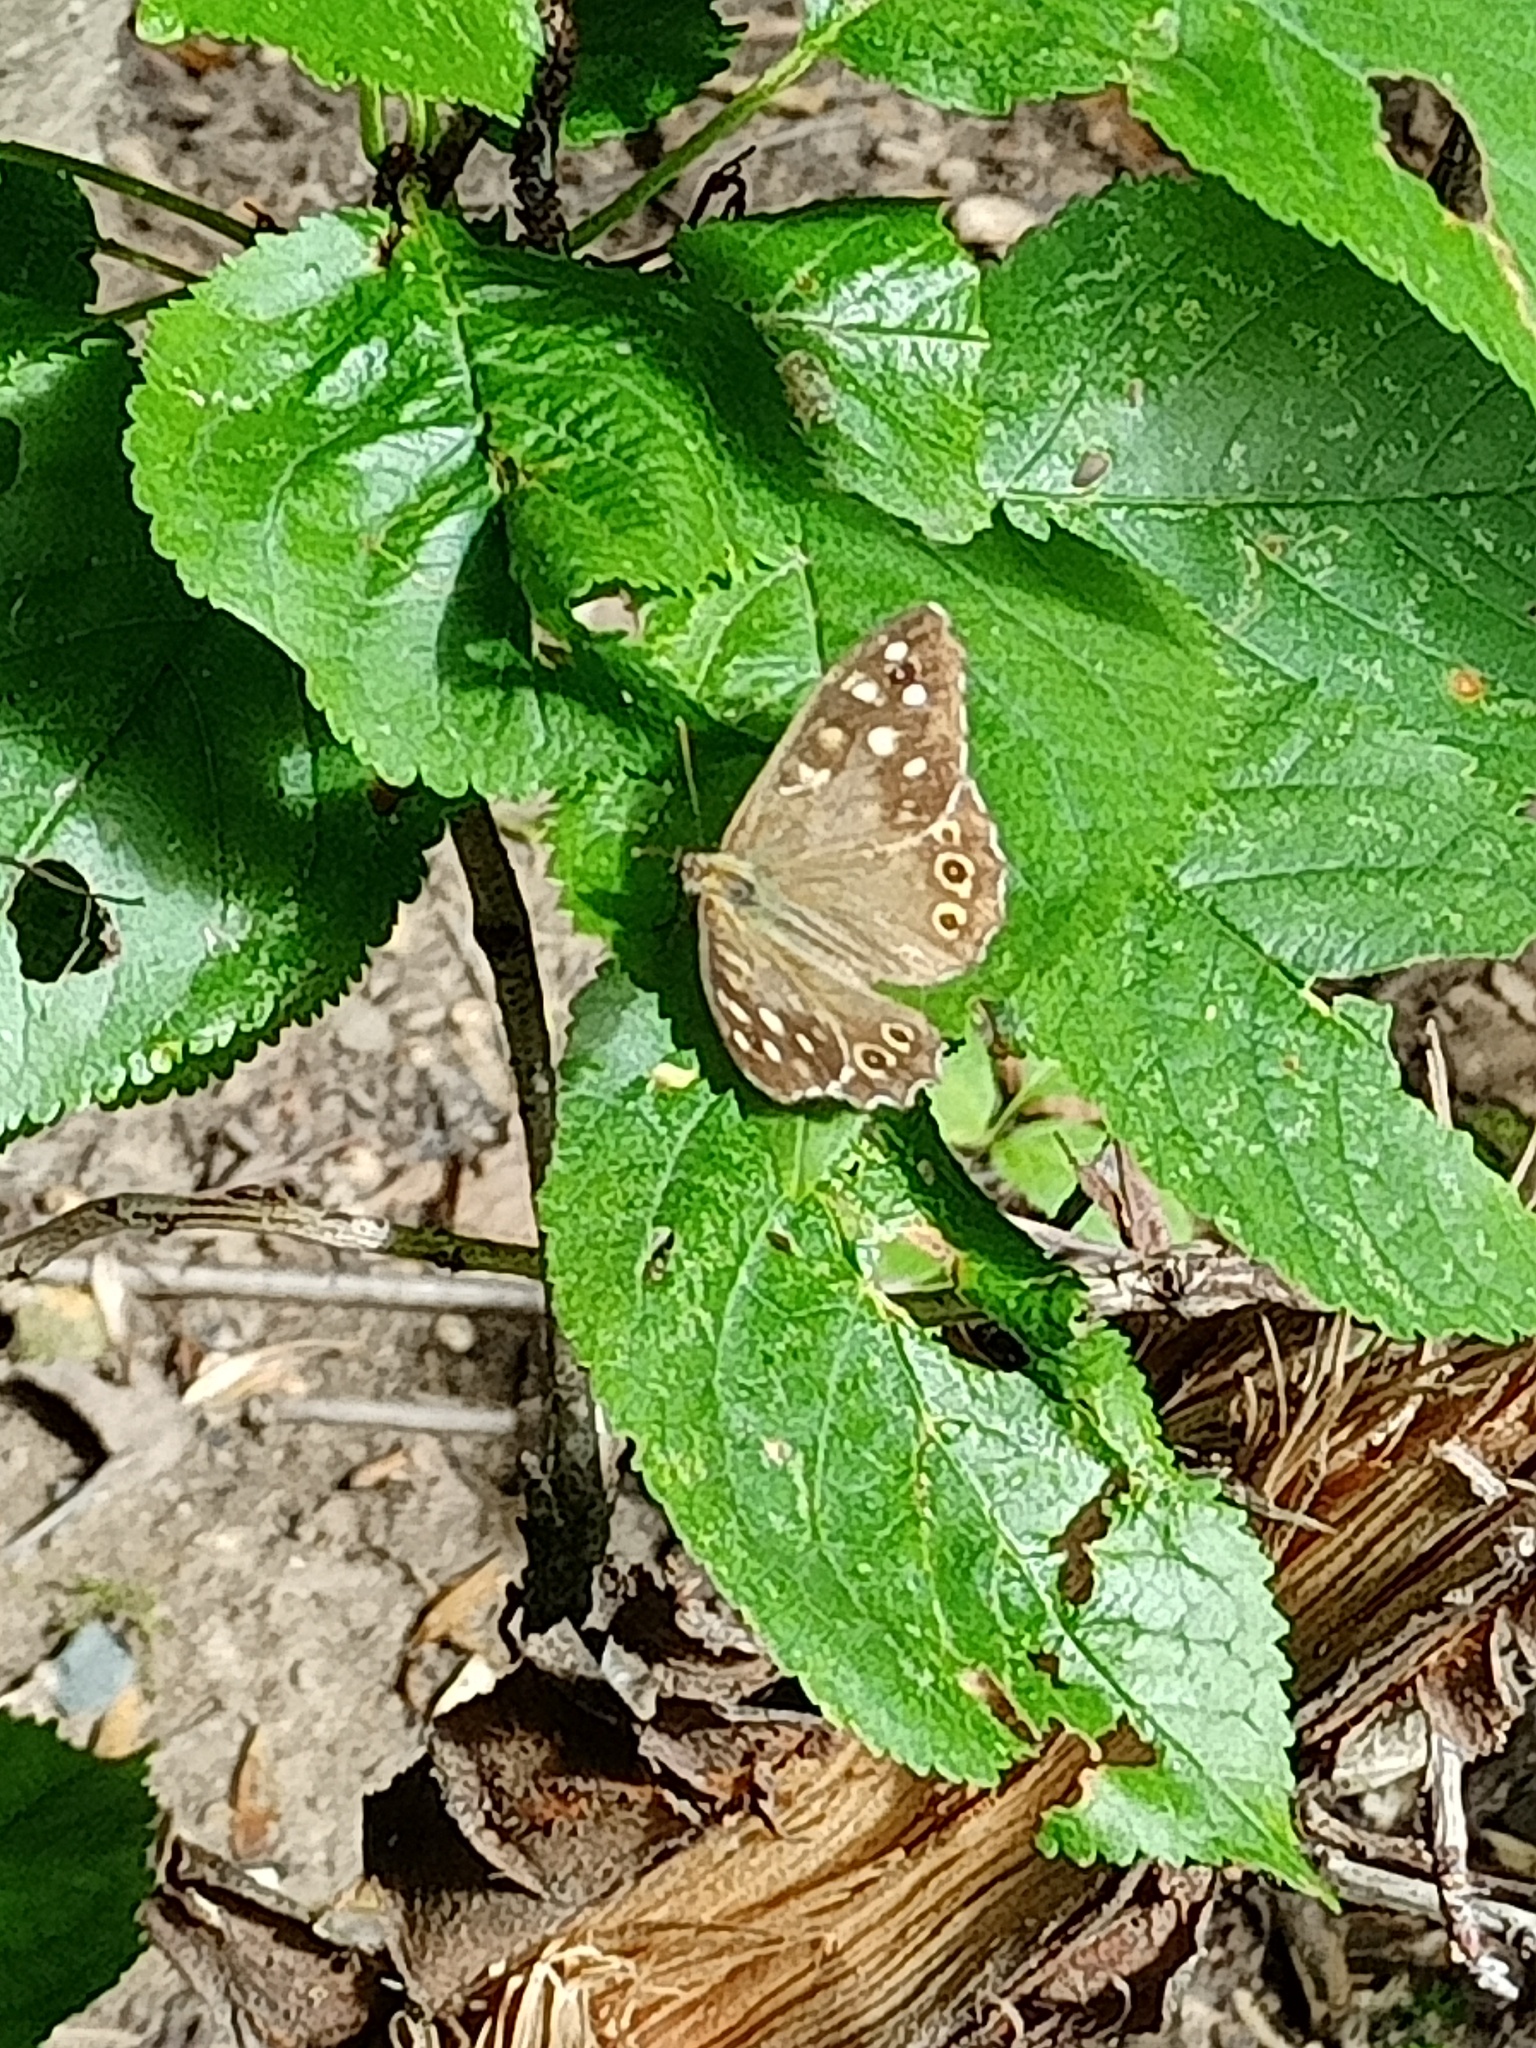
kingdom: Animalia
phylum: Arthropoda
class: Insecta
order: Lepidoptera
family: Nymphalidae
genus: Pararge
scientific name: Pararge aegeria
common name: Speckled wood
